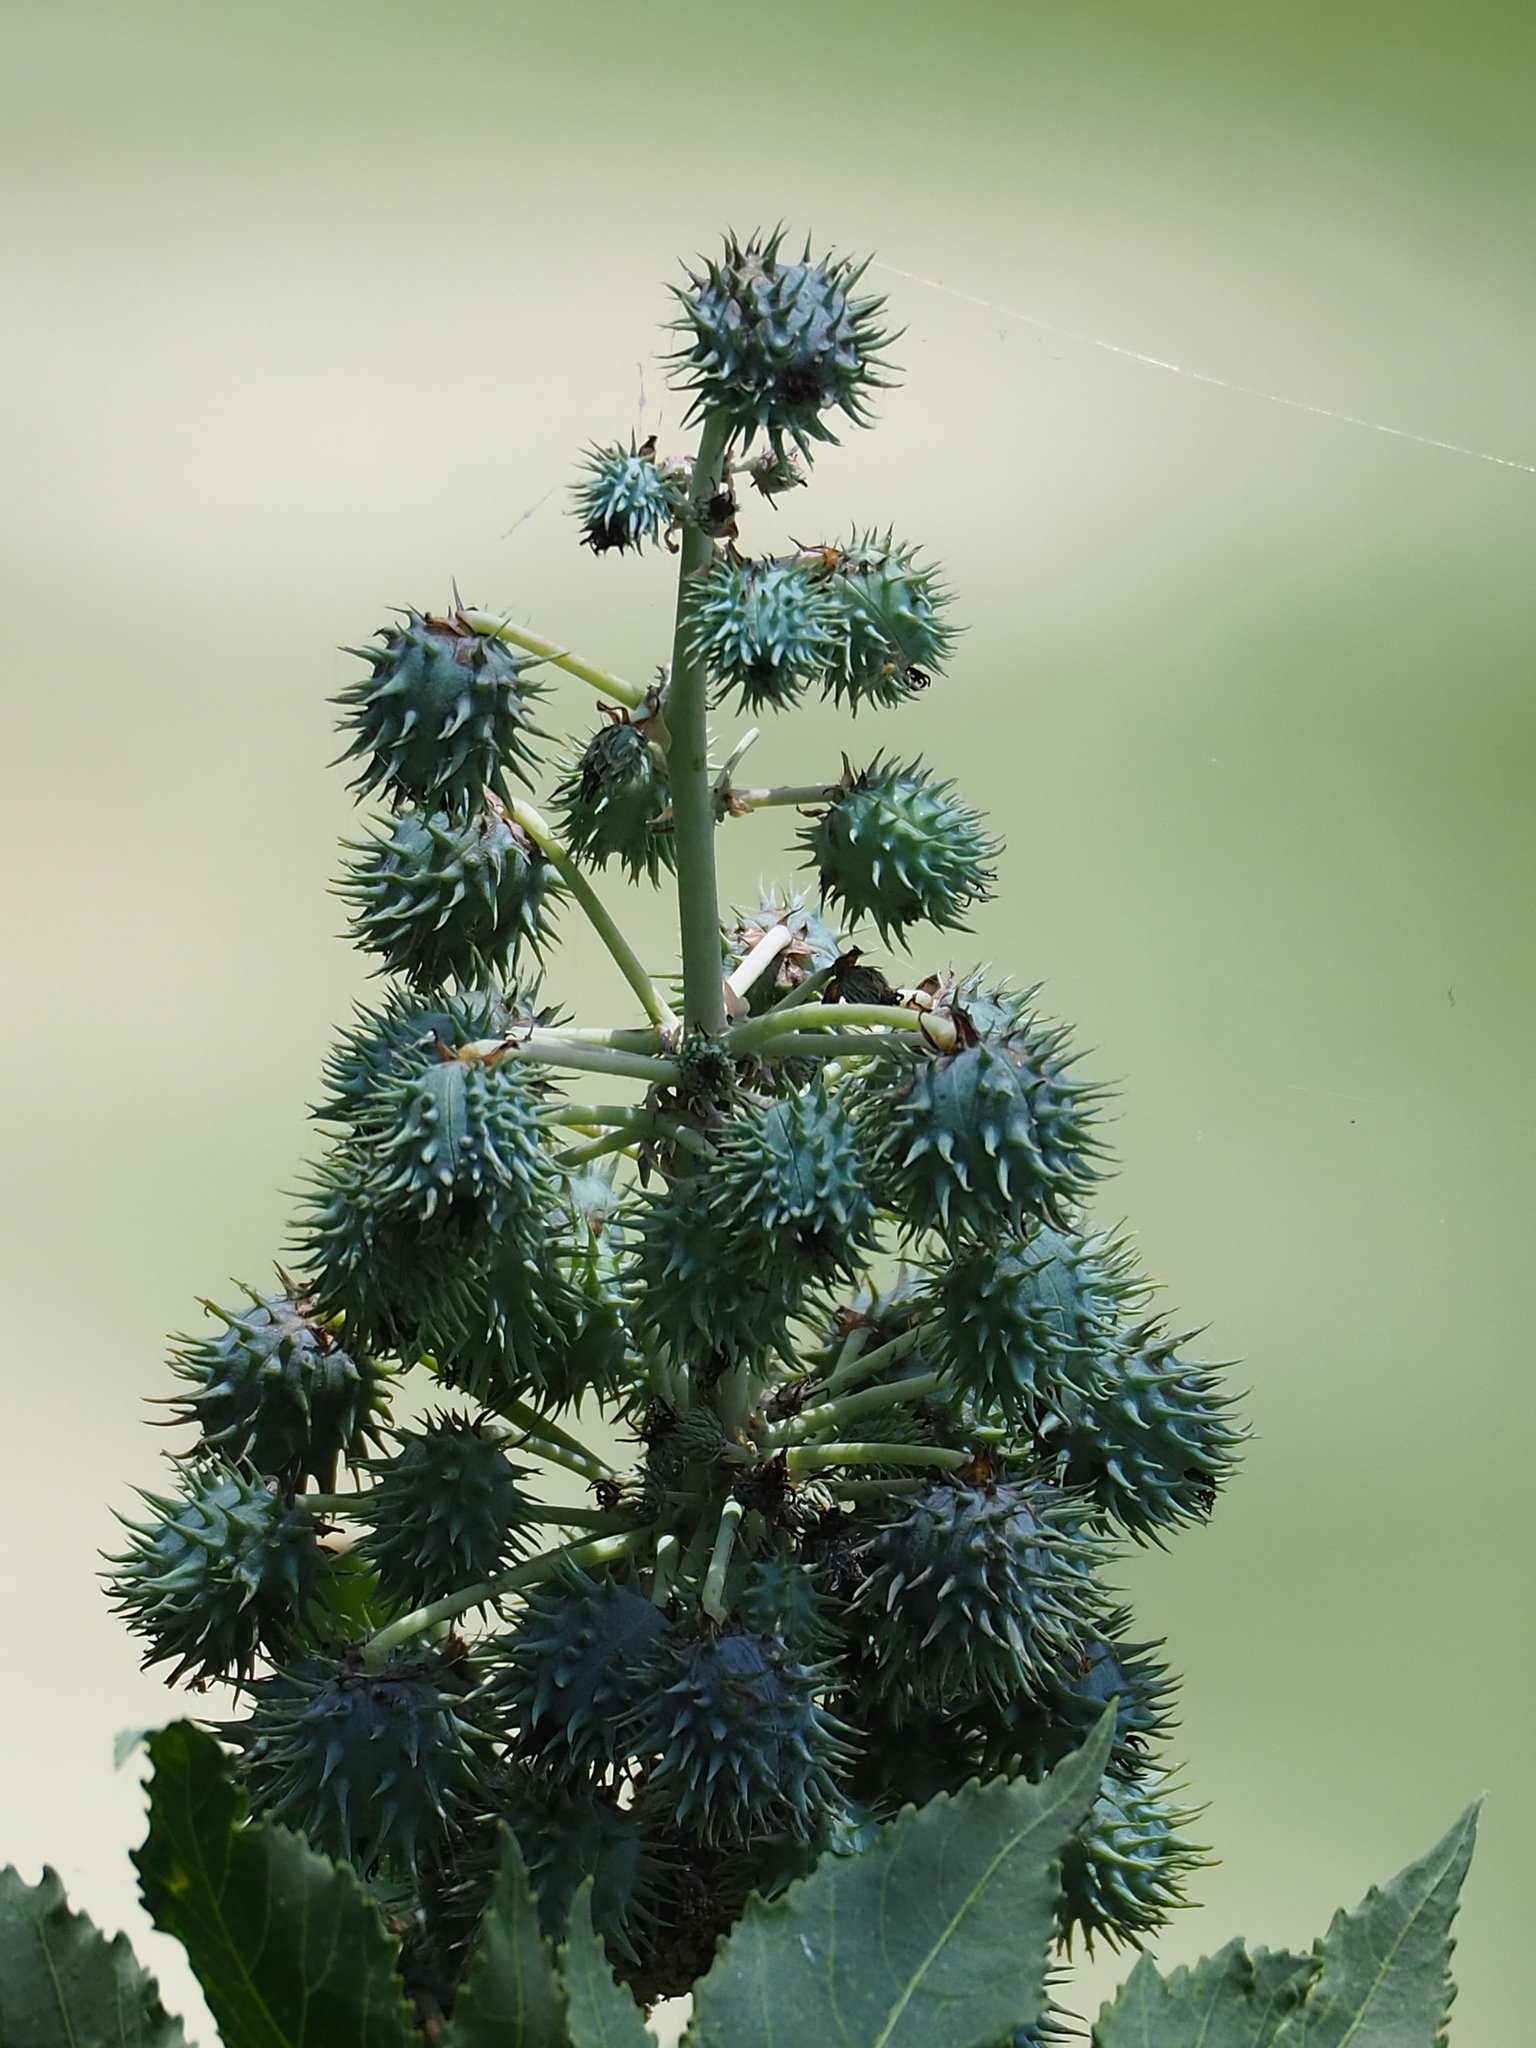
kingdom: Plantae
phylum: Tracheophyta
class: Magnoliopsida
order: Malpighiales
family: Euphorbiaceae
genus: Ricinus
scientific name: Ricinus communis
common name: Castor-oil-plant
